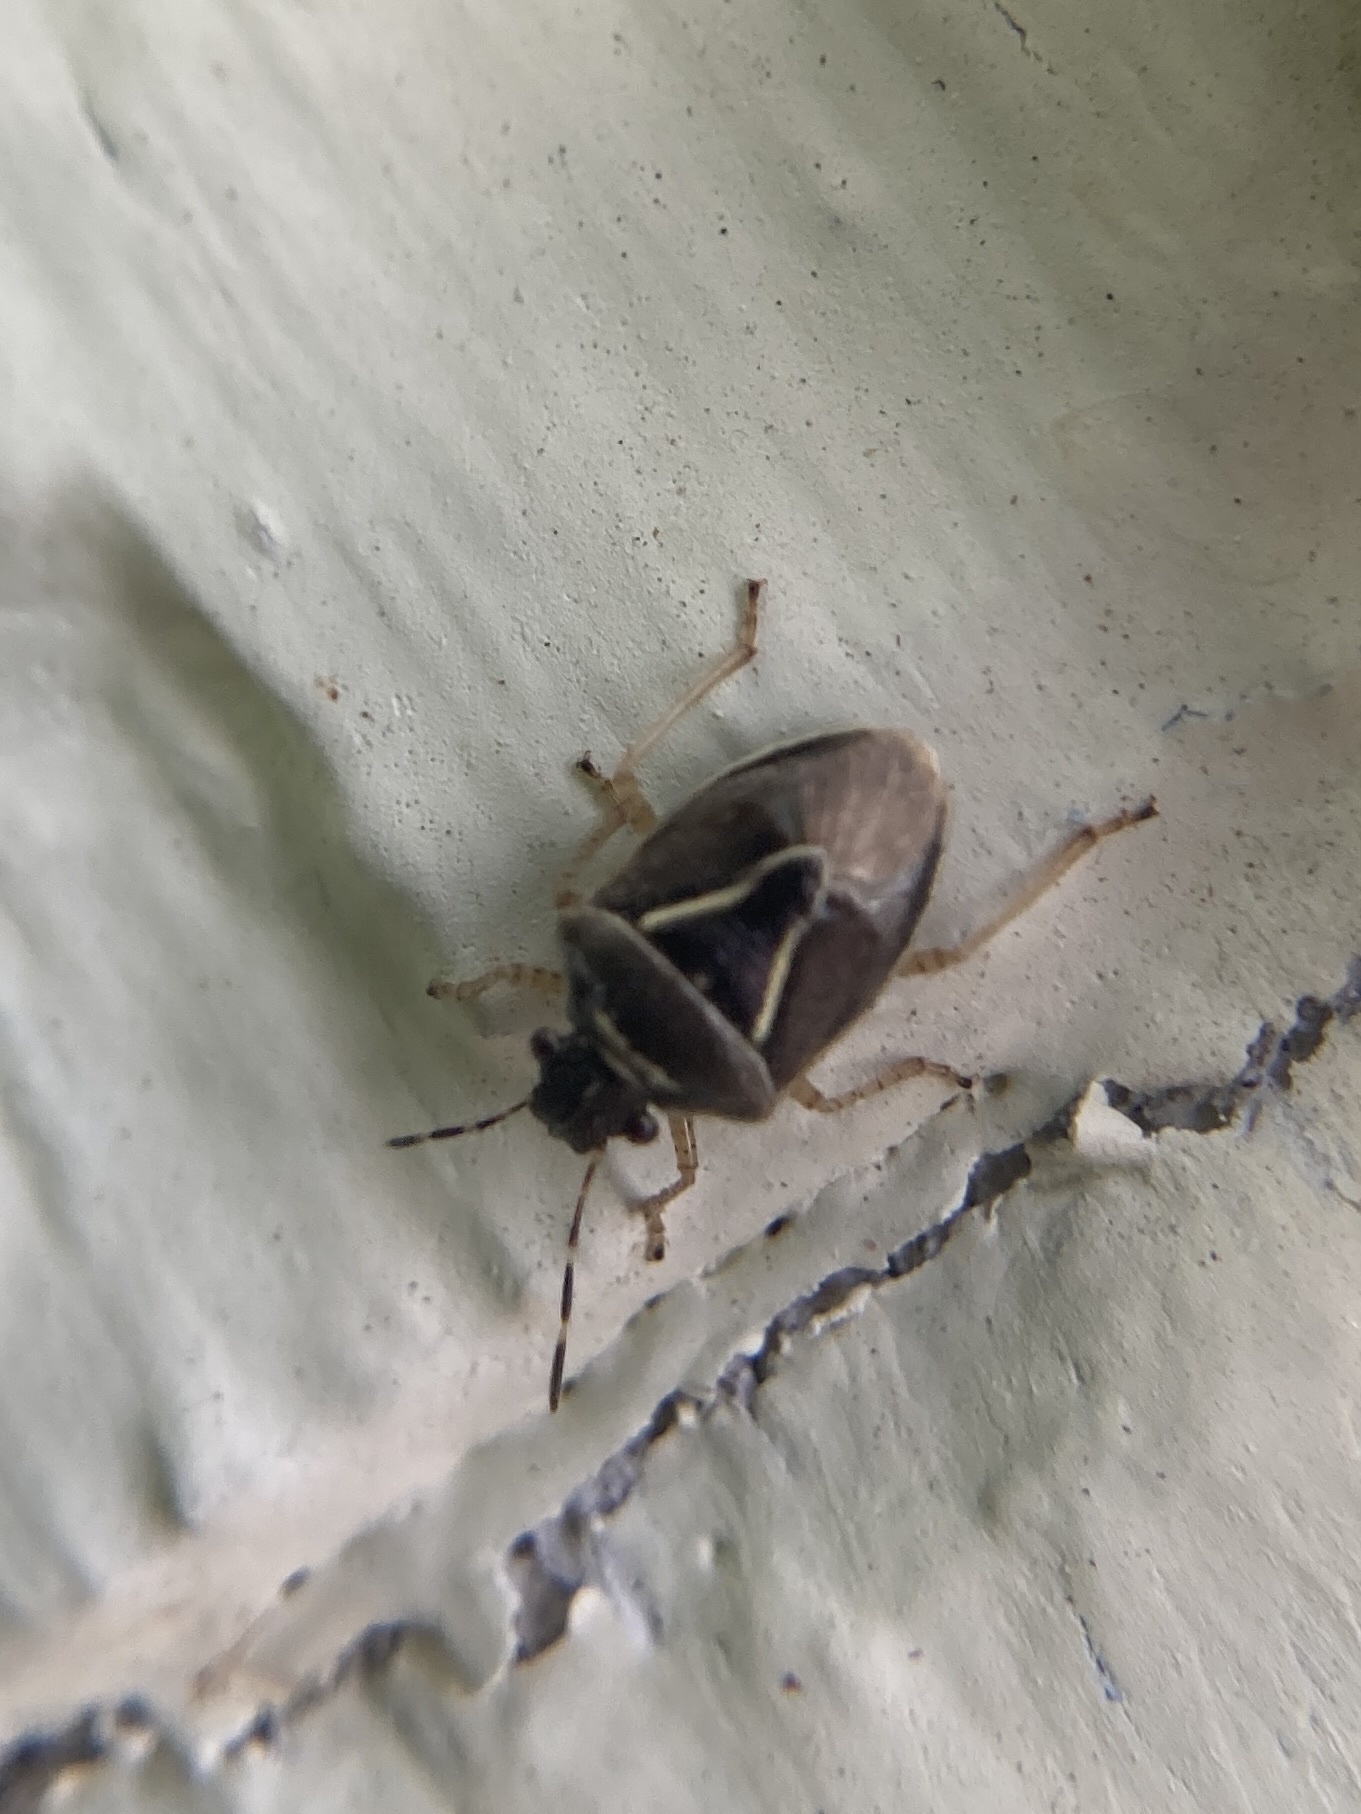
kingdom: Animalia
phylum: Arthropoda
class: Insecta
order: Hemiptera
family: Pentatomidae
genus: Mormidea
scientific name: Mormidea lugens
